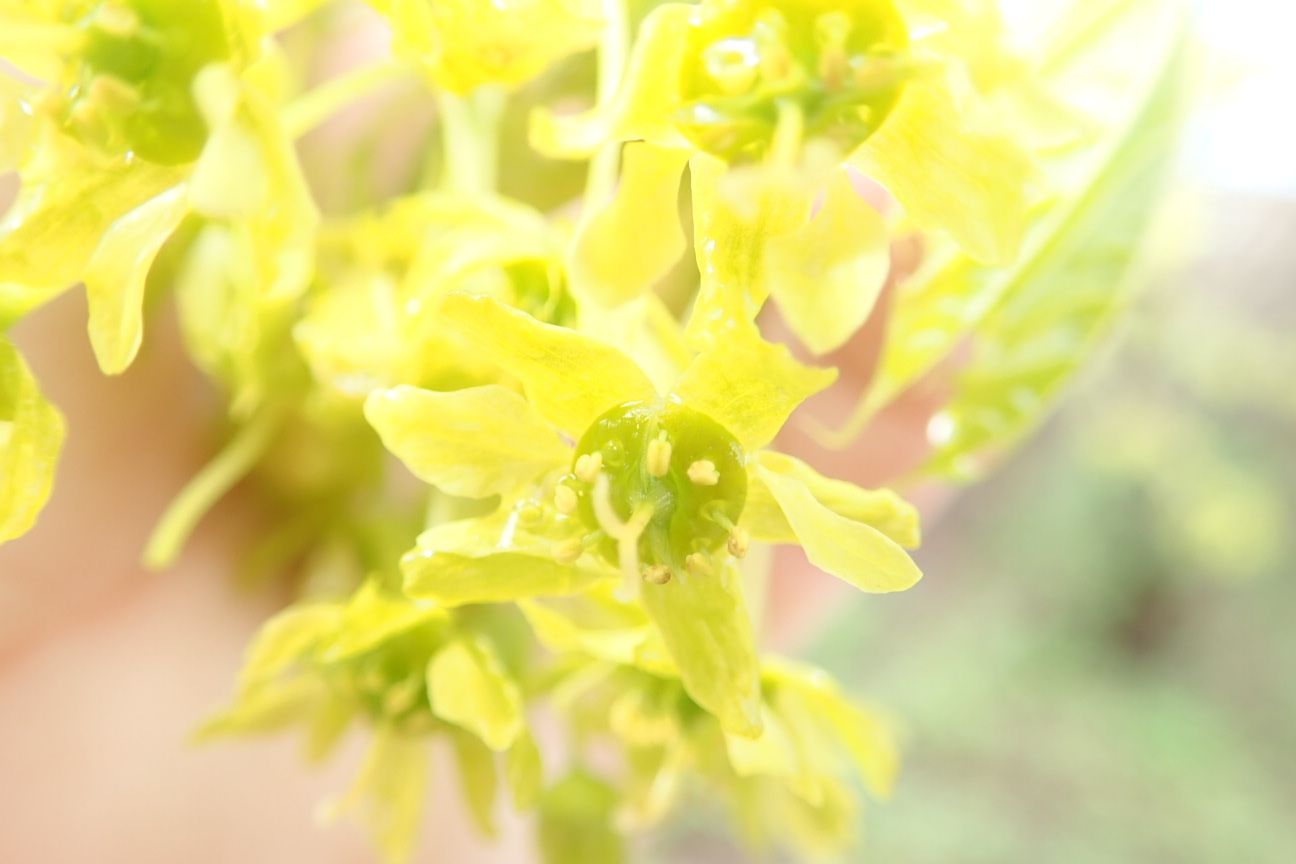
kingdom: Plantae
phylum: Tracheophyta
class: Magnoliopsida
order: Sapindales
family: Sapindaceae
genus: Acer
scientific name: Acer platanoides
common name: Norway maple
